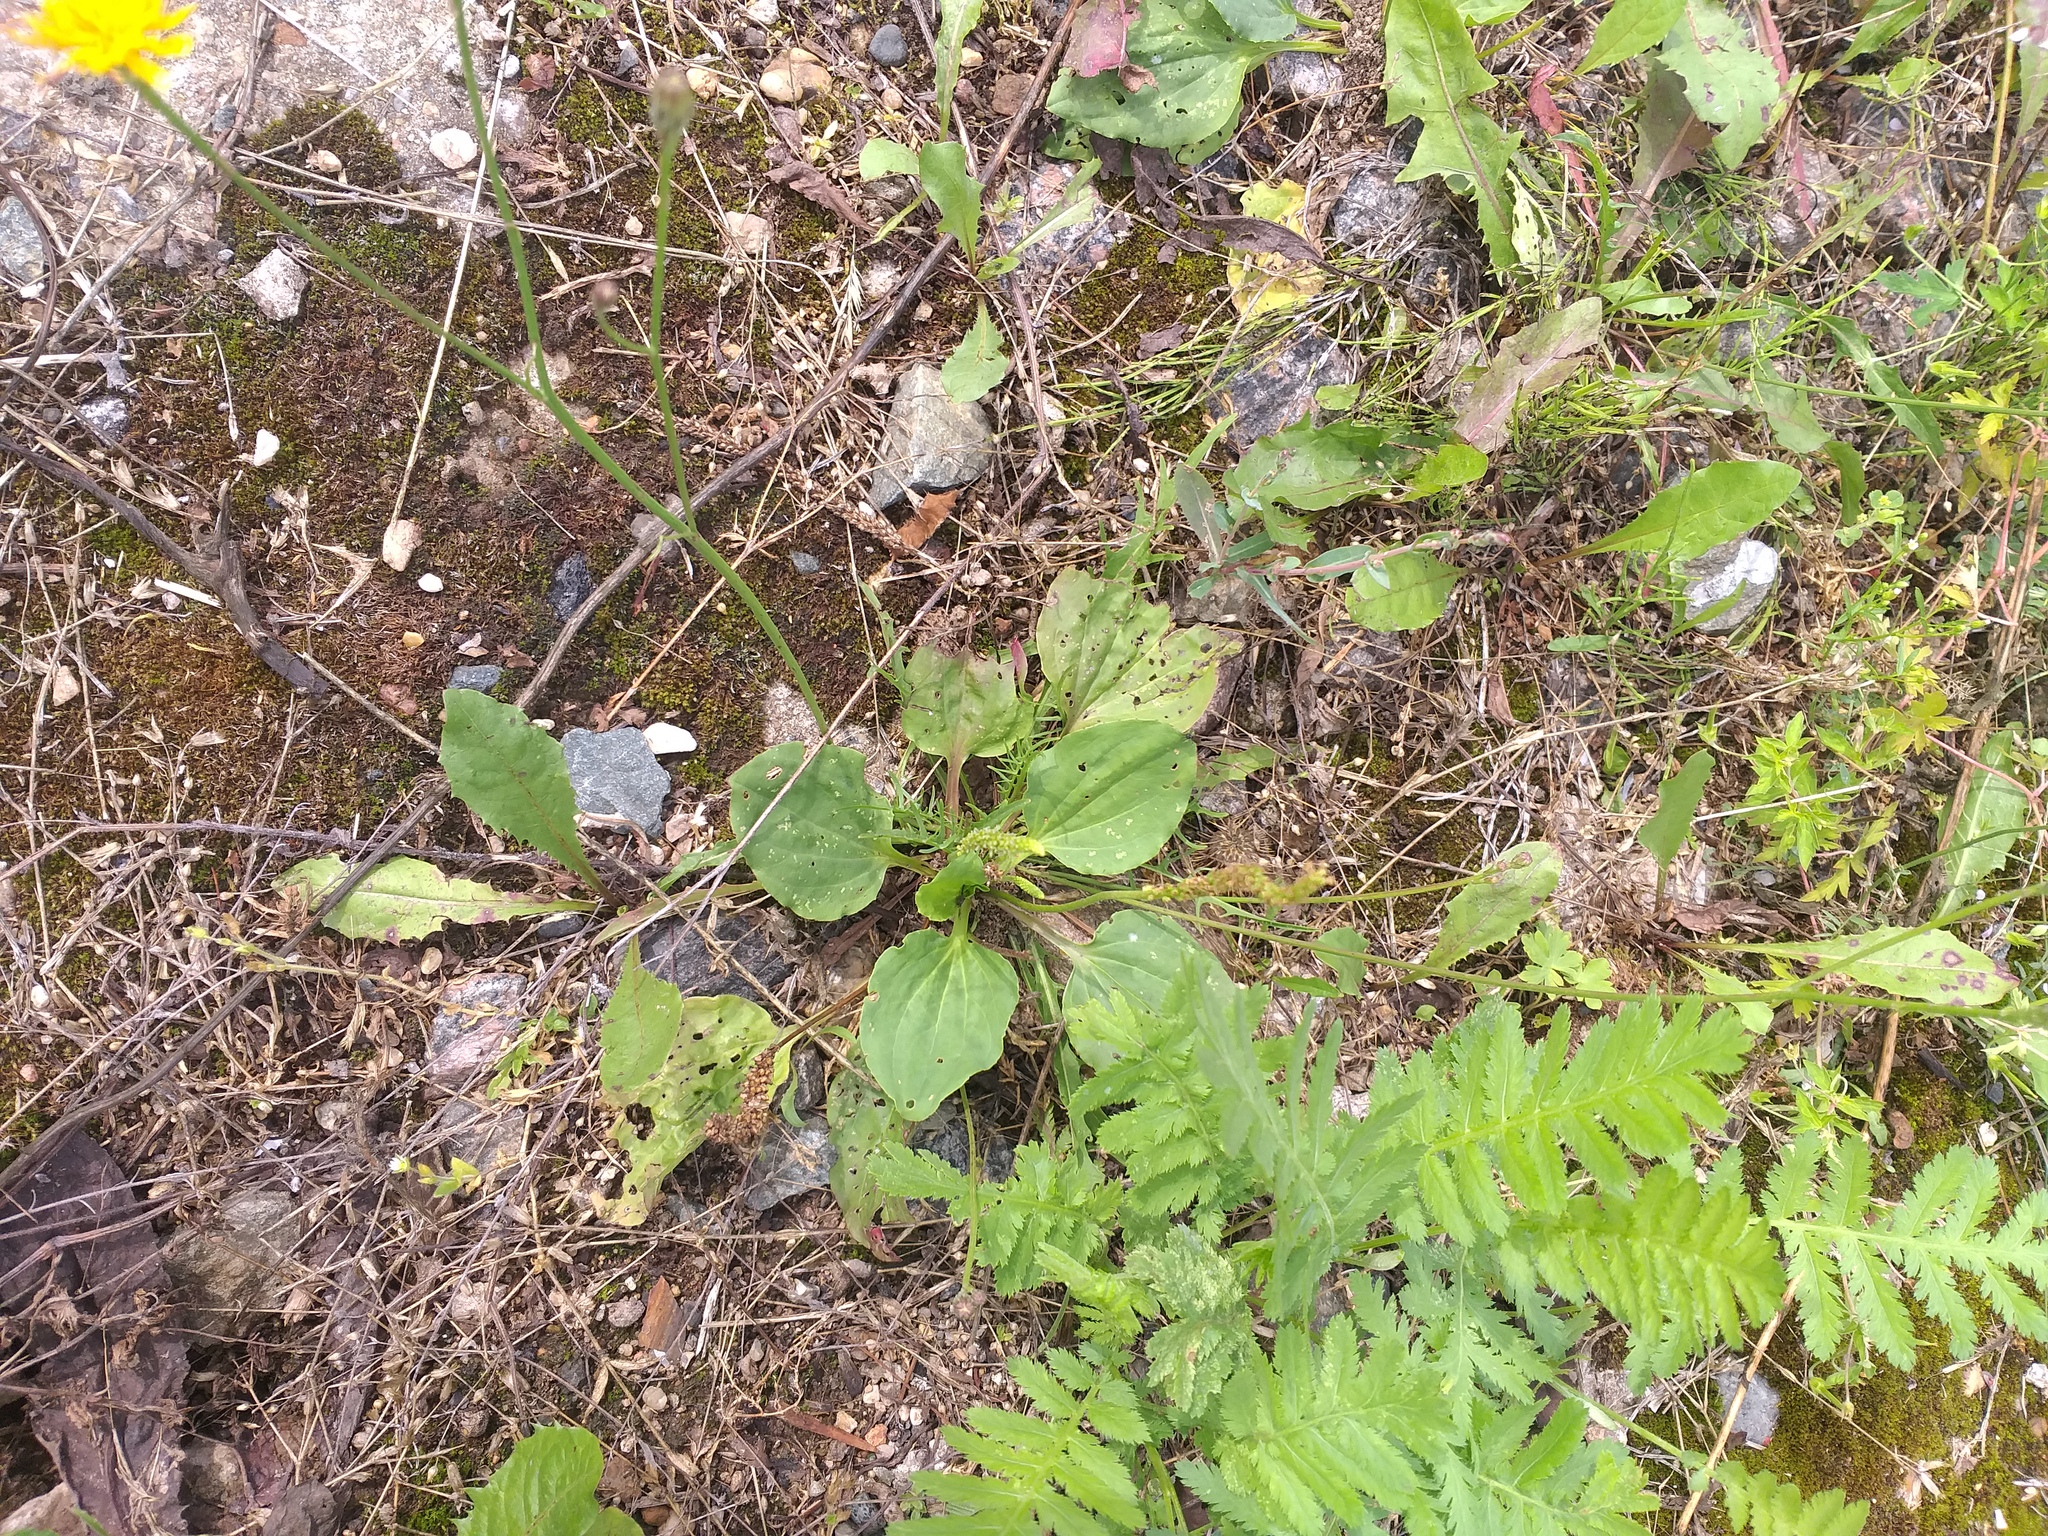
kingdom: Plantae
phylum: Tracheophyta
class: Magnoliopsida
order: Lamiales
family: Plantaginaceae
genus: Plantago
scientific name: Plantago major
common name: Common plantain
